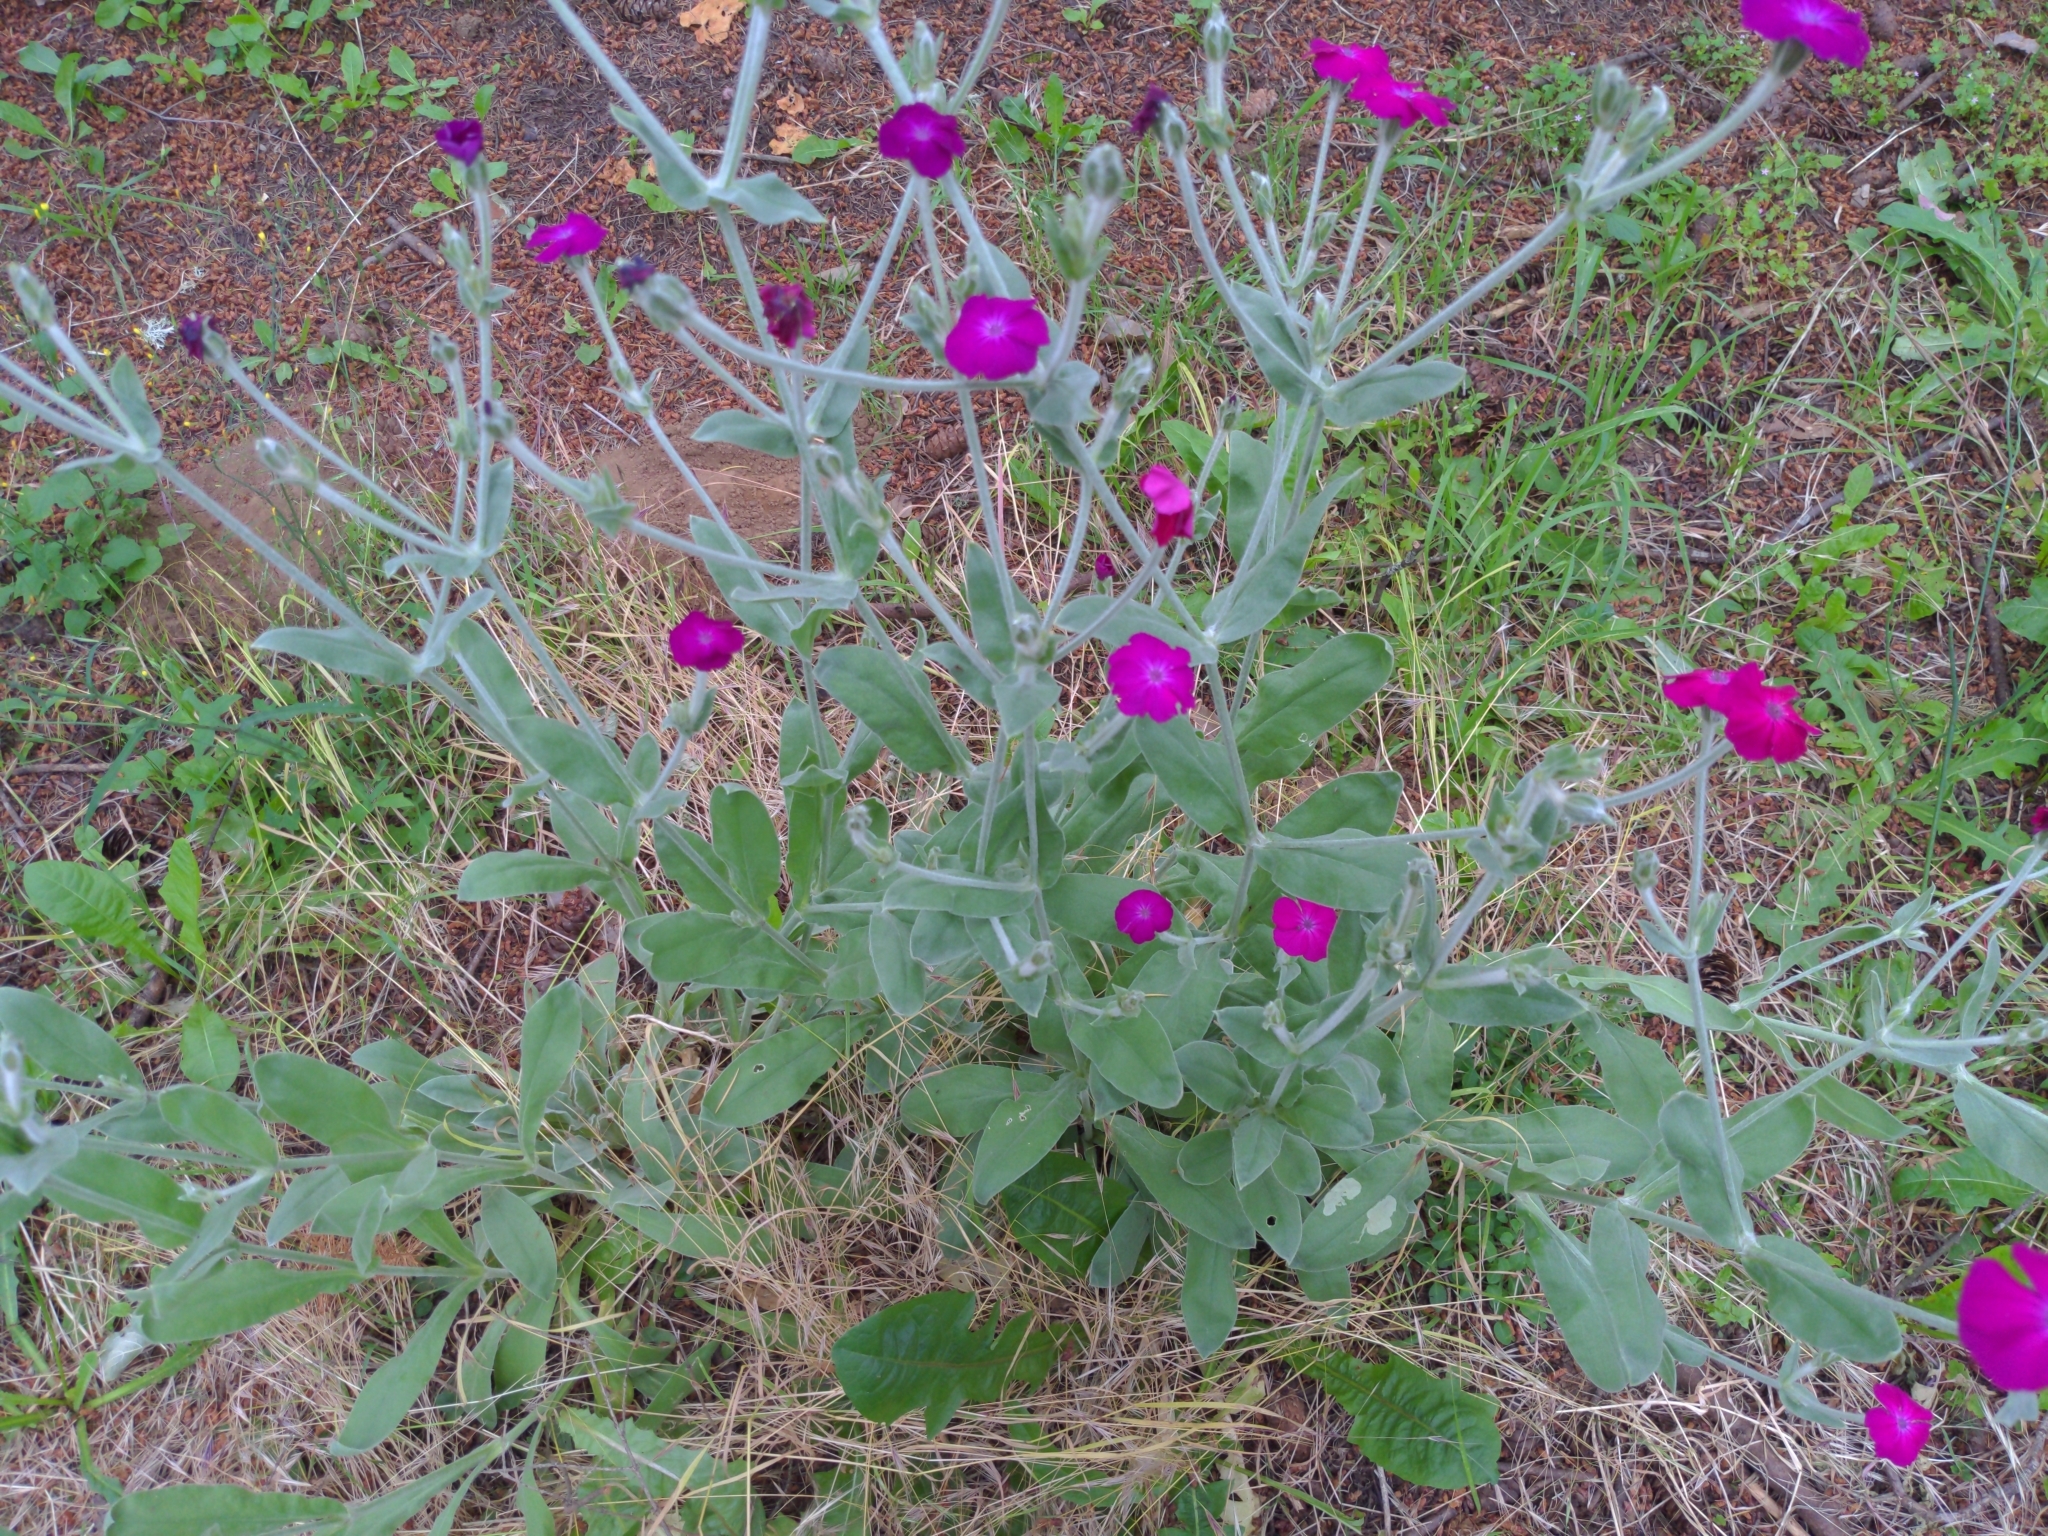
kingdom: Plantae
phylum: Tracheophyta
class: Magnoliopsida
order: Caryophyllales
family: Caryophyllaceae
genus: Silene
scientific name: Silene coronaria
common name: Rose campion
